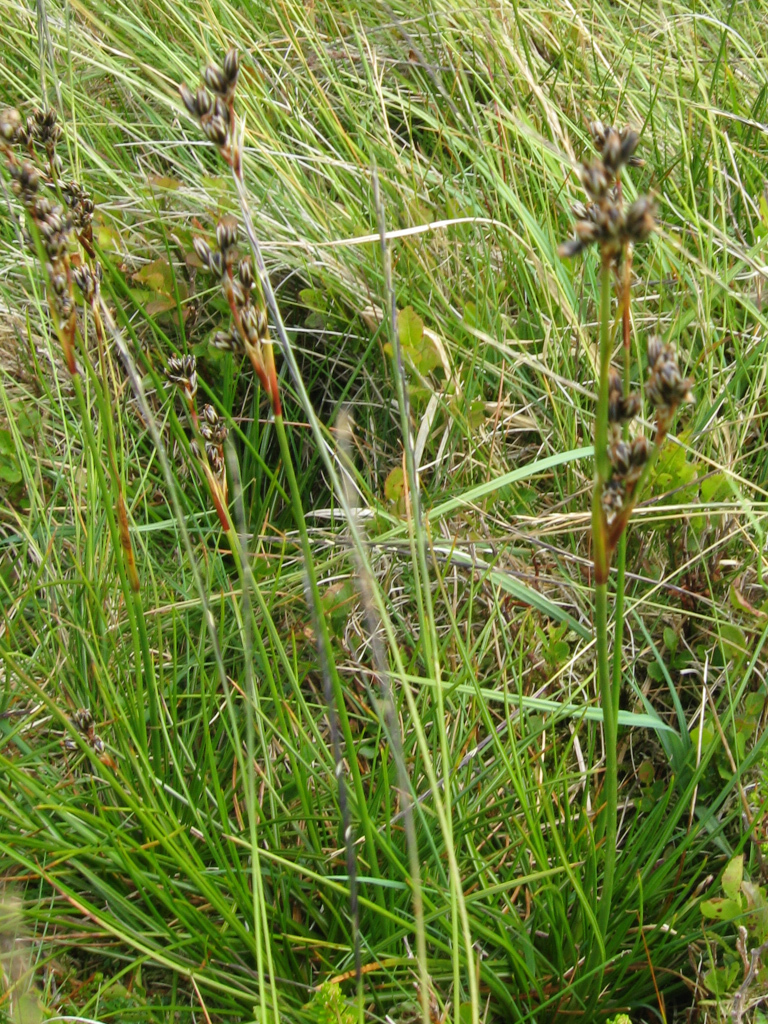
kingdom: Plantae
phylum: Tracheophyta
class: Liliopsida
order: Poales
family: Juncaceae
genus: Juncus
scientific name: Juncus squarrosus
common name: Heath rush
